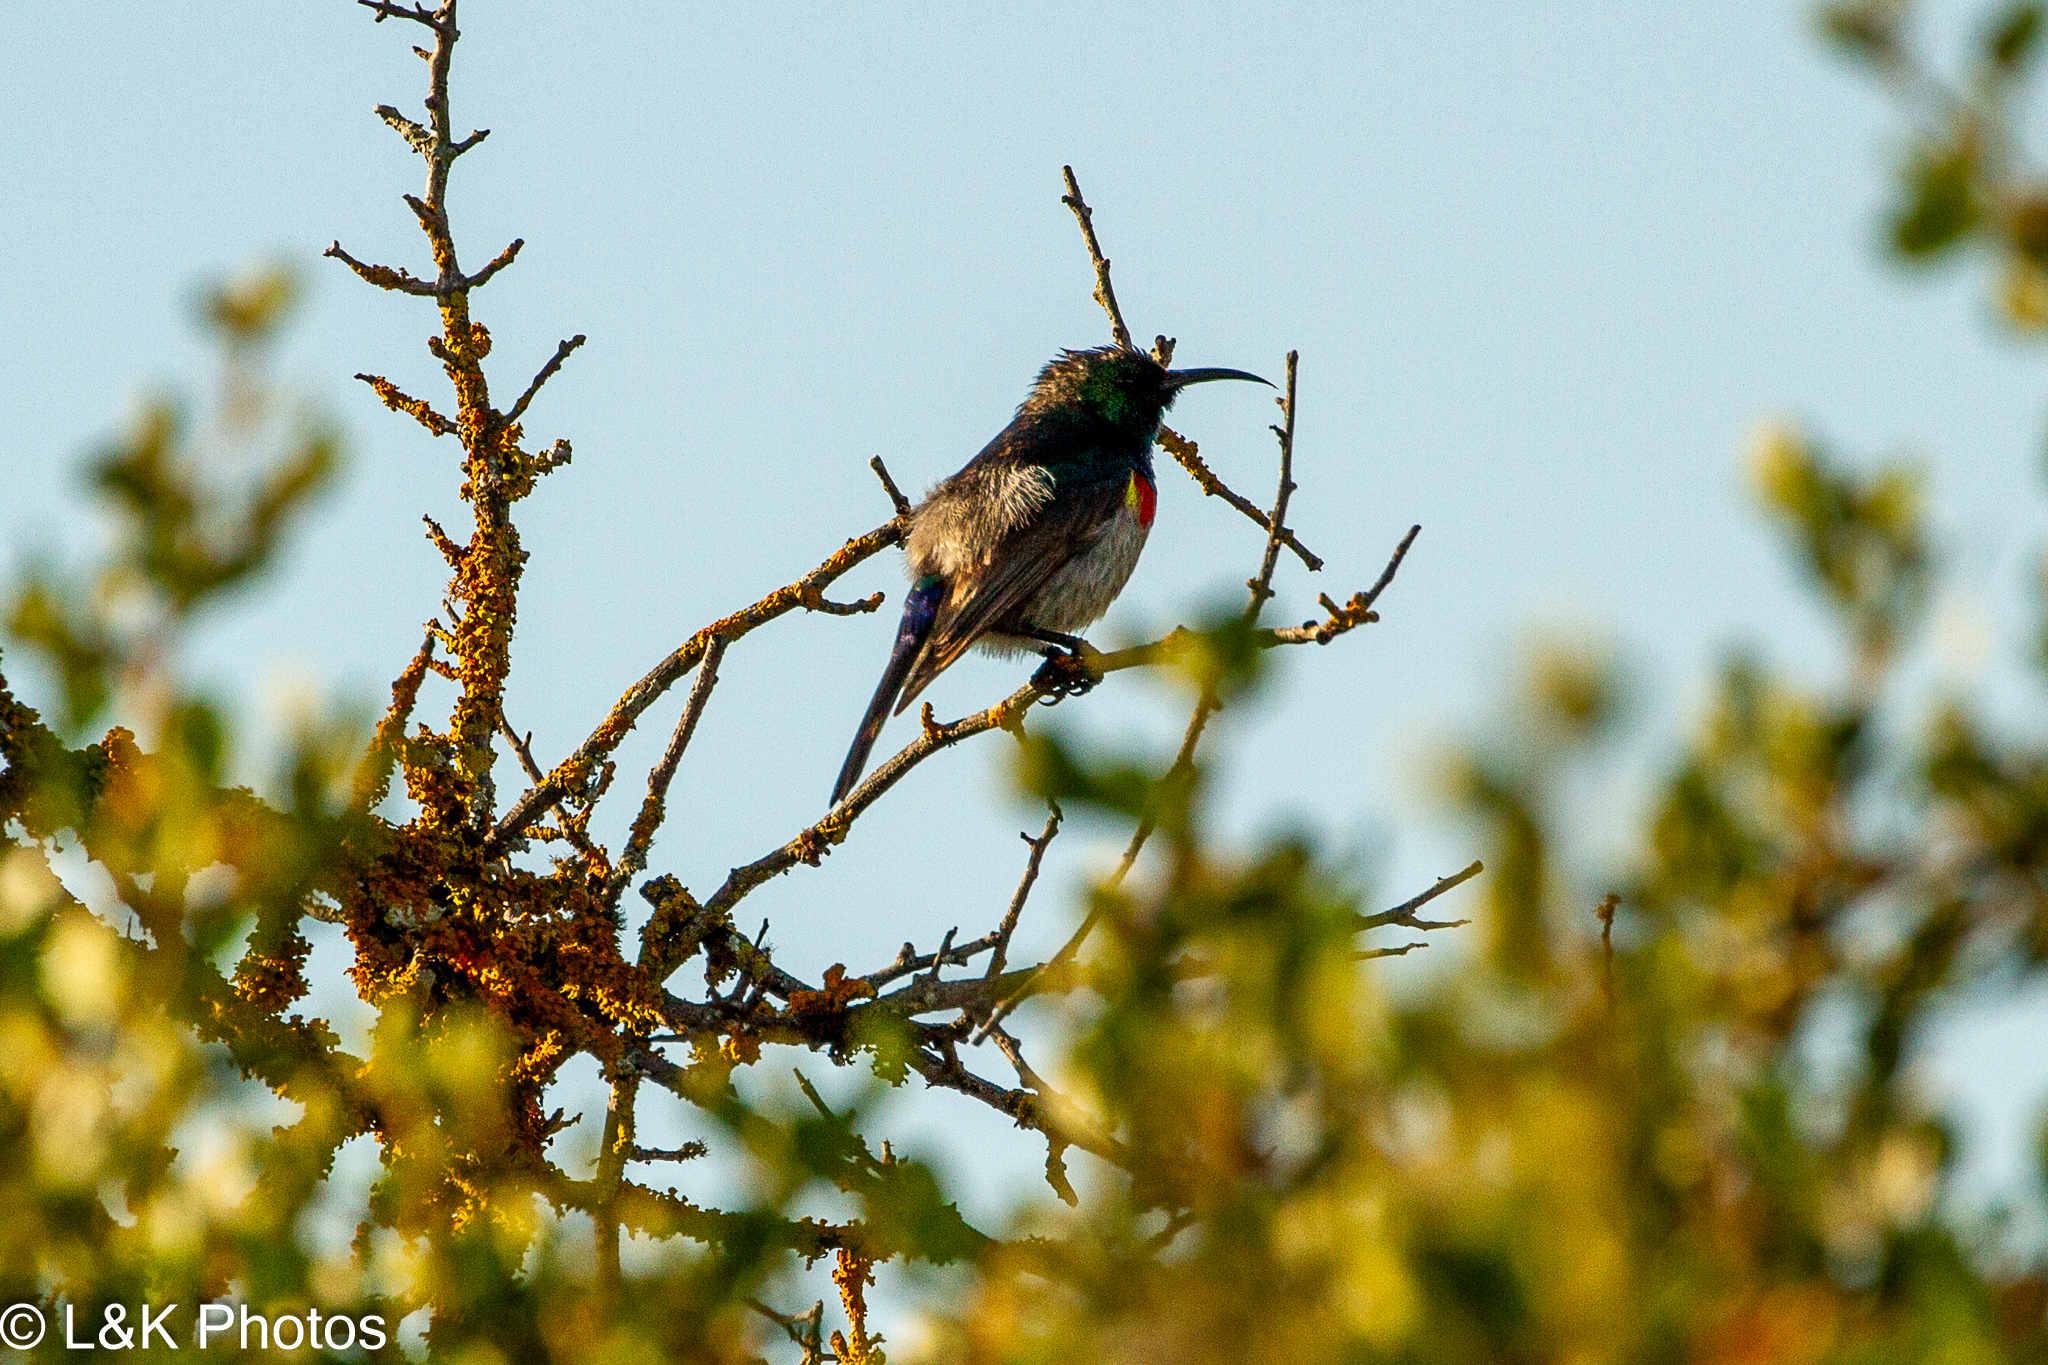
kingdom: Animalia
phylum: Chordata
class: Aves
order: Passeriformes
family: Nectariniidae
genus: Cinnyris
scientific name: Cinnyris chalybeus
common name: Southern double-collared sunbird
